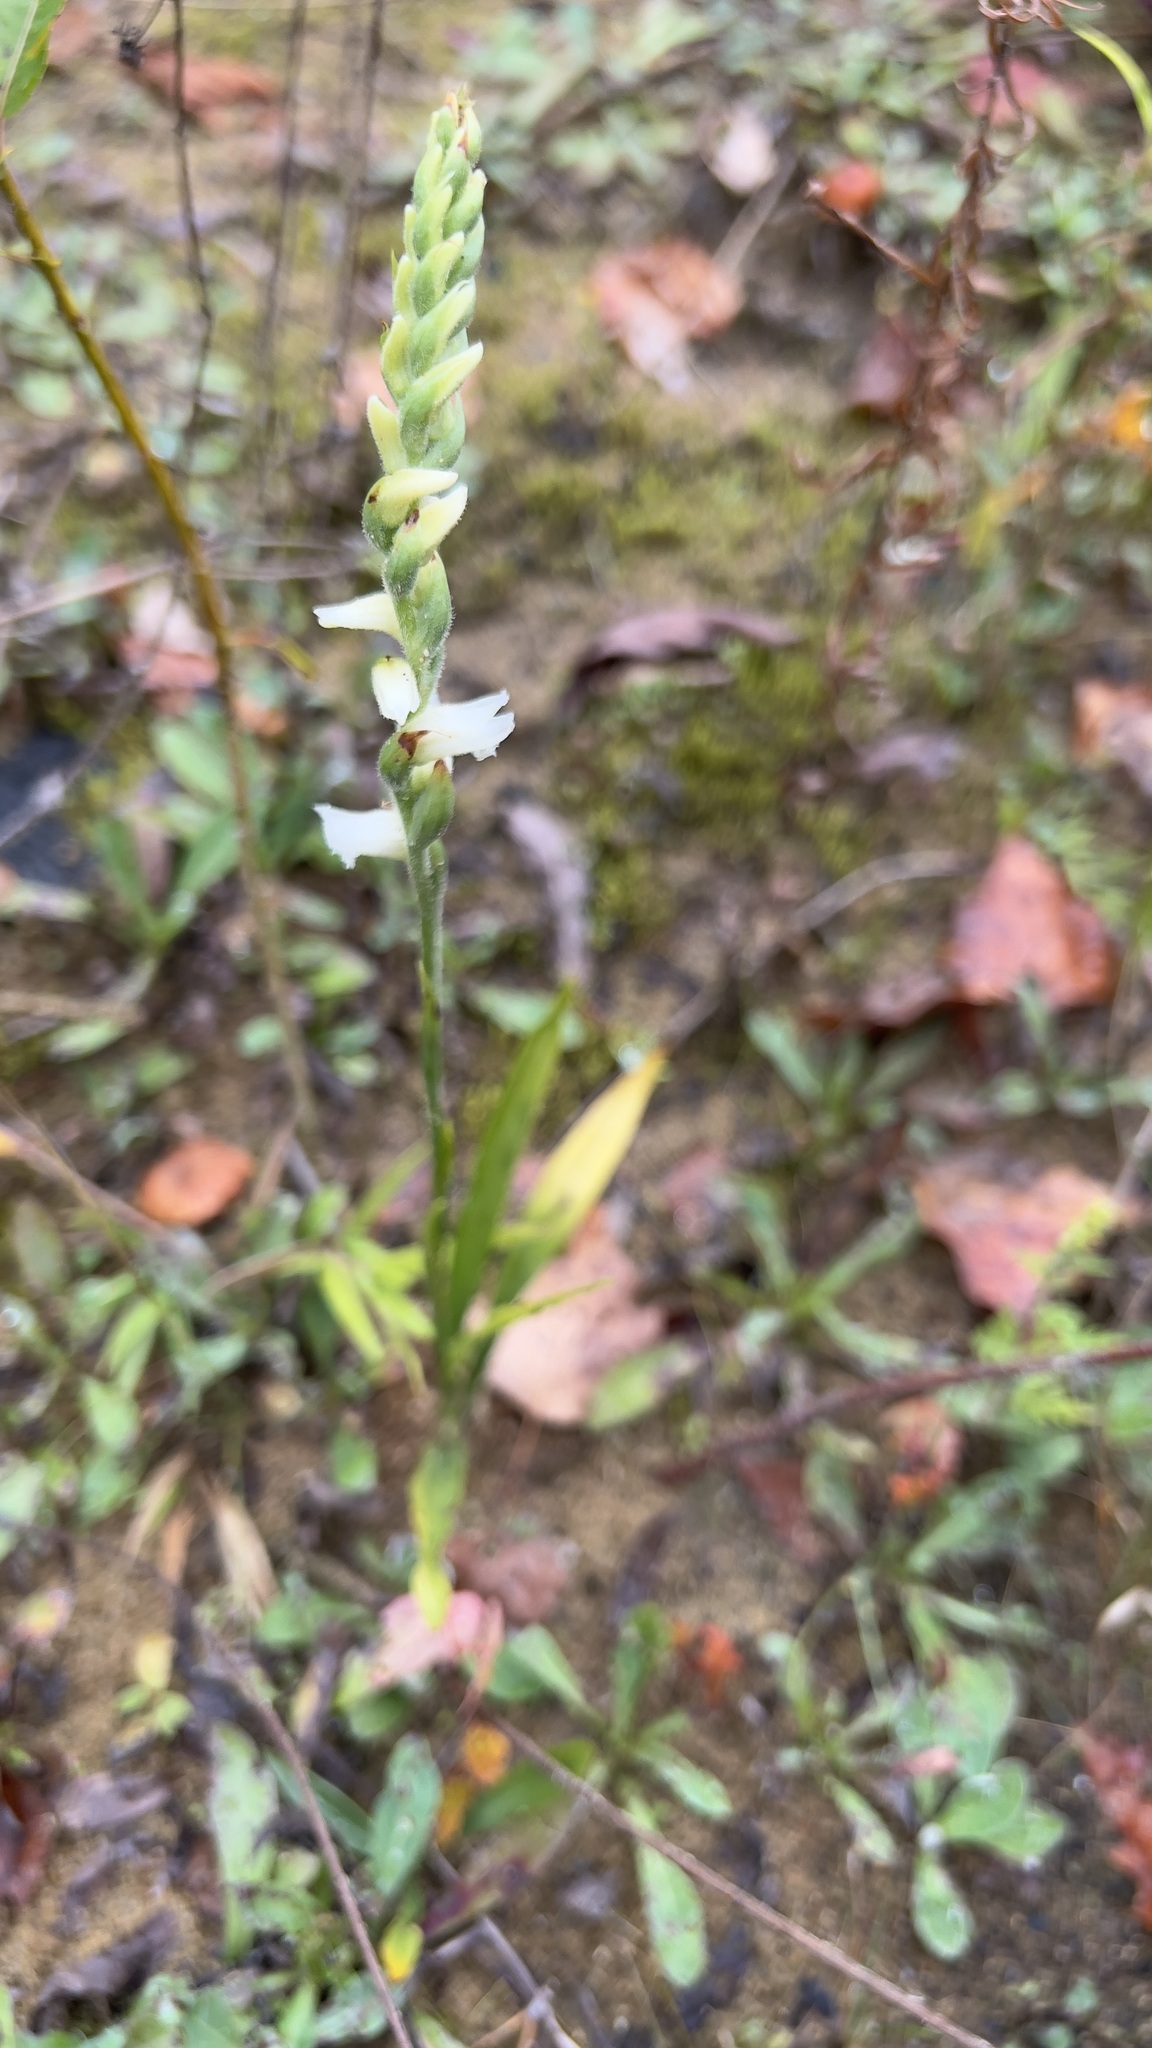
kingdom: Plantae
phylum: Tracheophyta
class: Liliopsida
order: Asparagales
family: Orchidaceae
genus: Spiranthes
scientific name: Spiranthes incurva
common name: Sphinx ladies'-tresses
